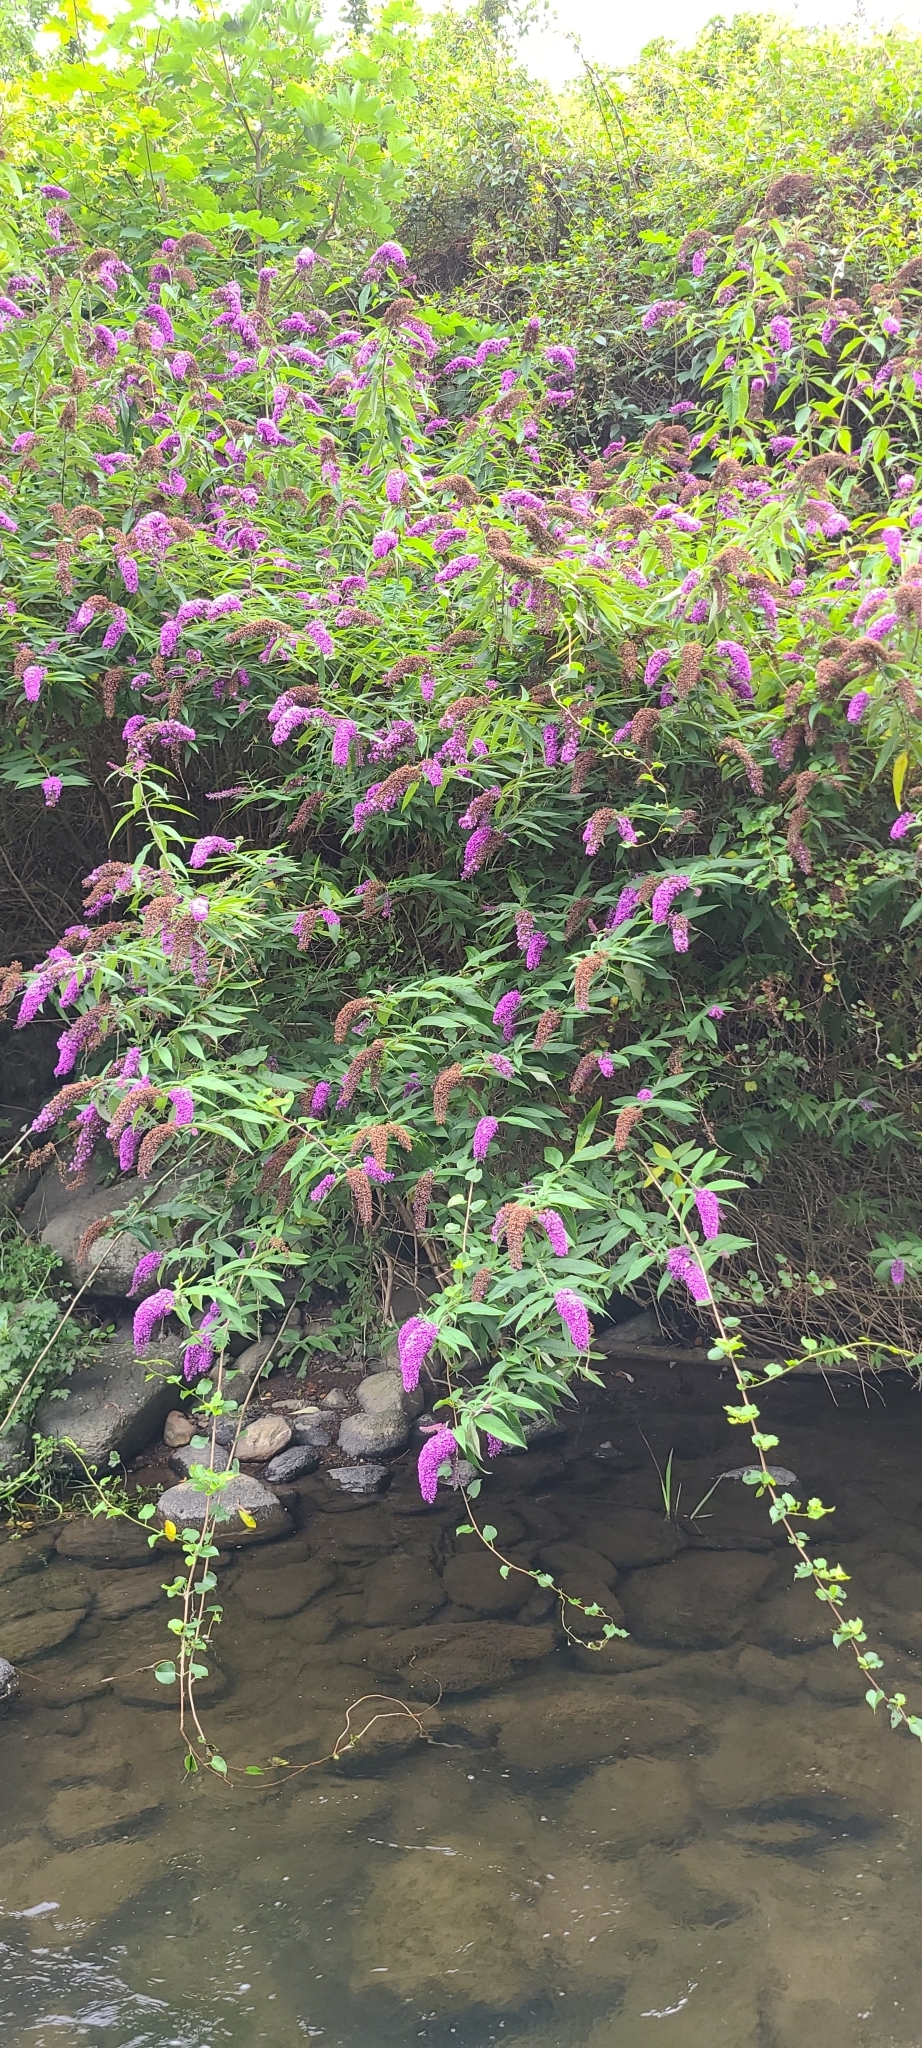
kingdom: Plantae
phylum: Tracheophyta
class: Magnoliopsida
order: Lamiales
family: Scrophulariaceae
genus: Buddleja
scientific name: Buddleja davidii
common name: Butterfly-bush
